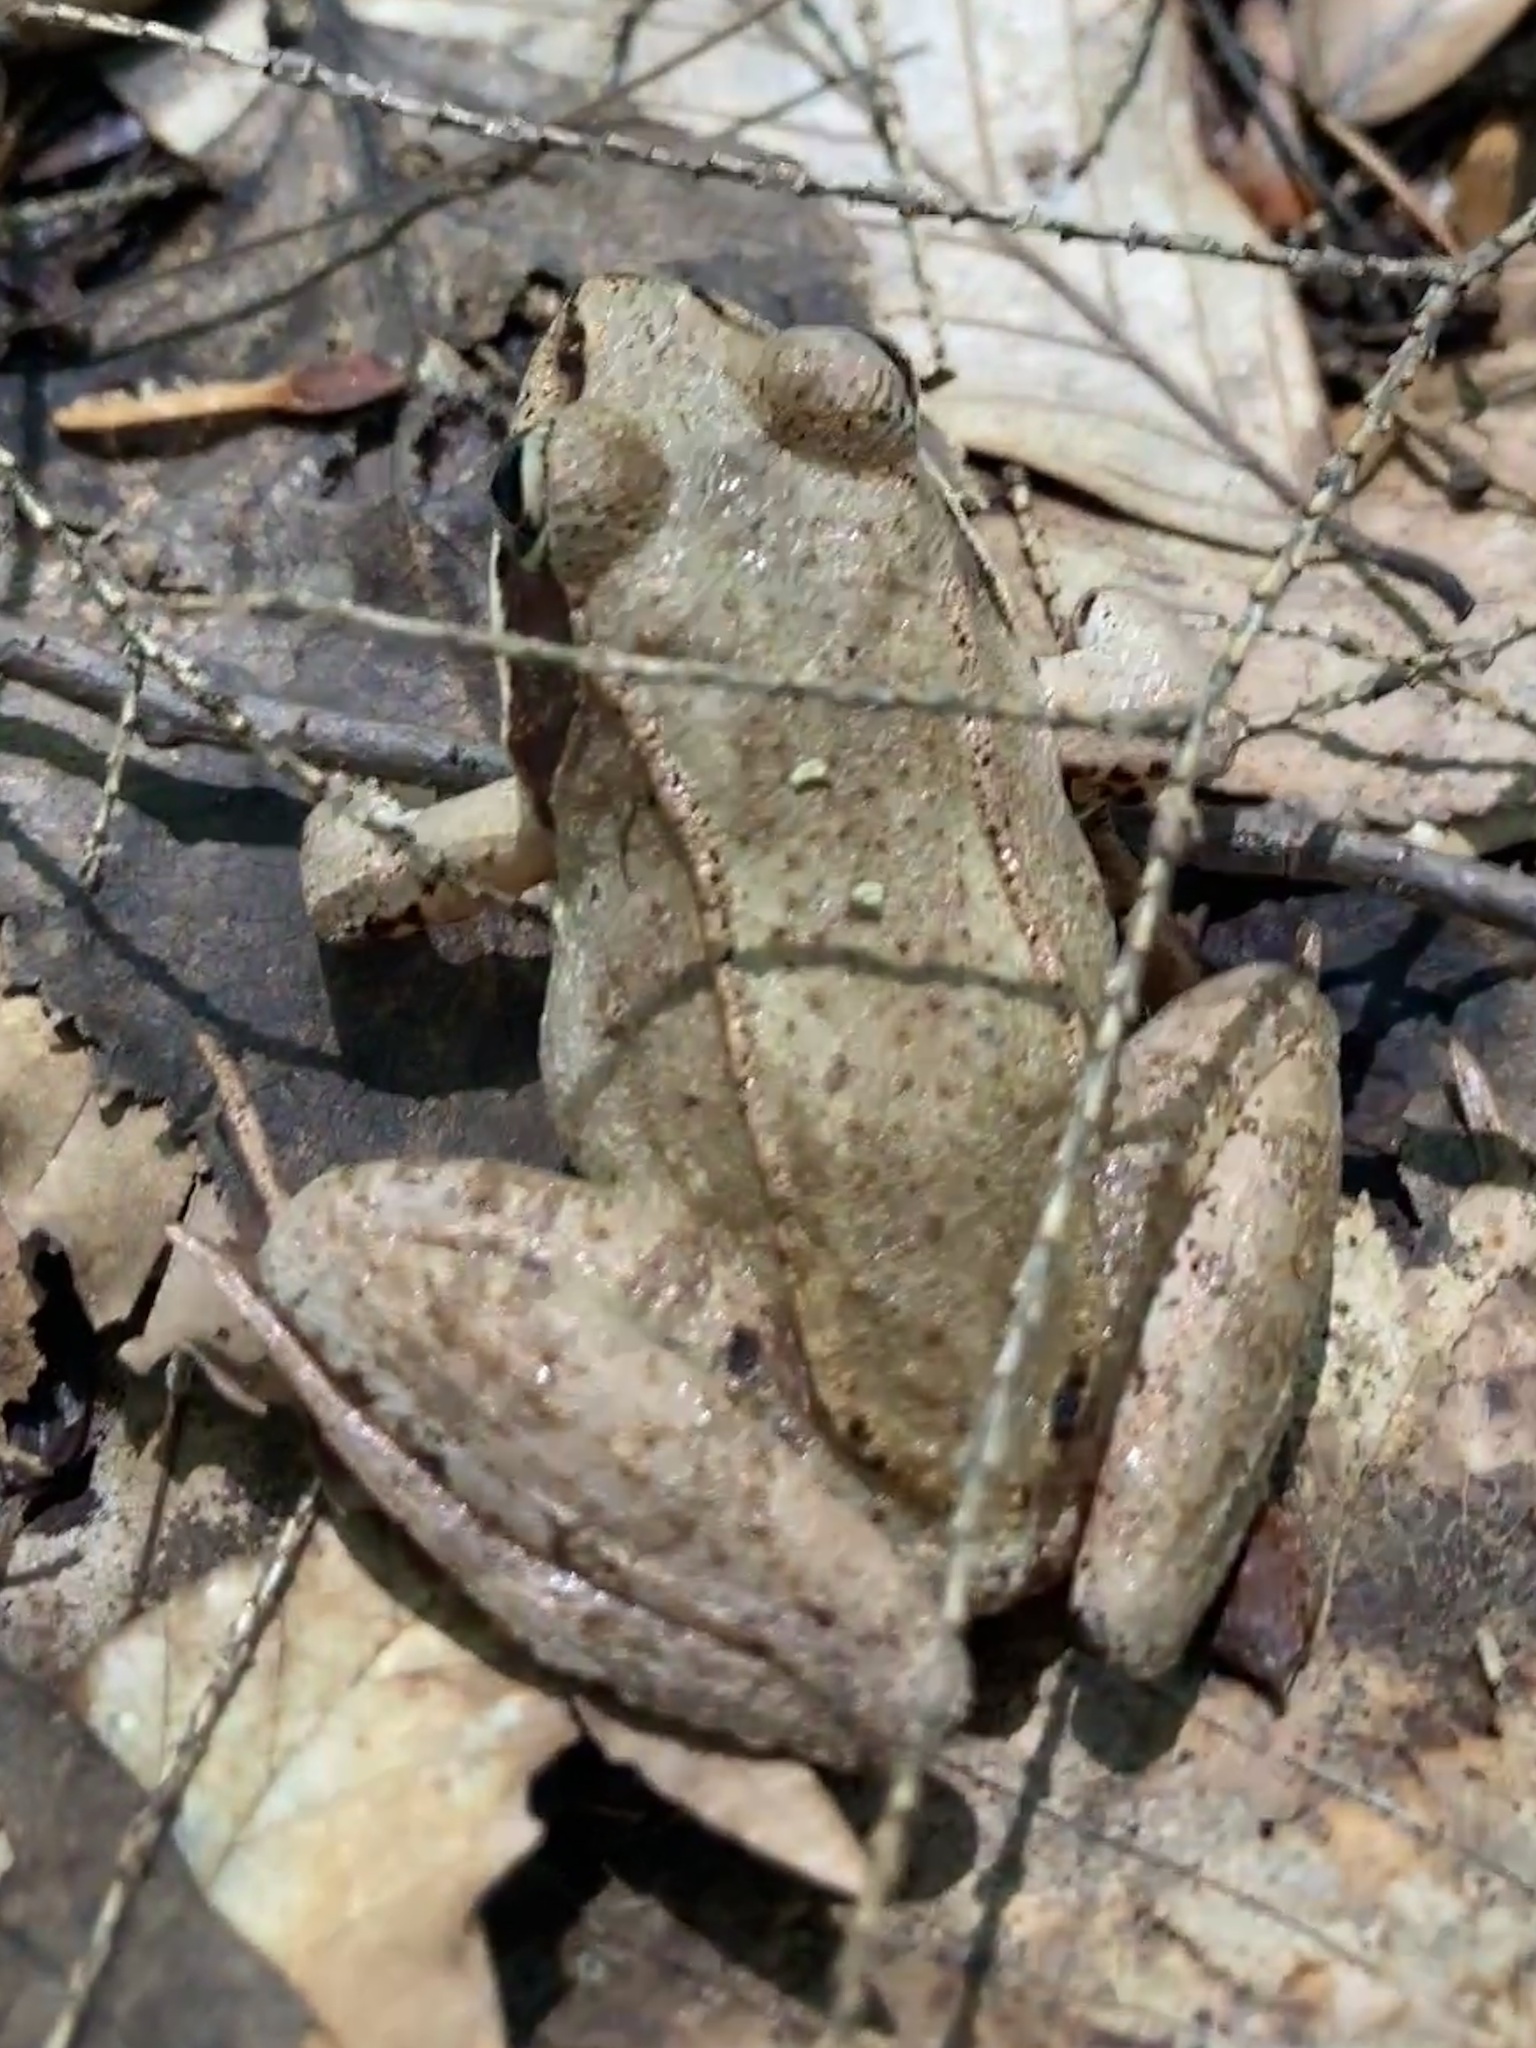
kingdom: Animalia
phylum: Chordata
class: Amphibia
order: Anura
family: Ranidae
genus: Lithobates
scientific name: Lithobates sylvaticus
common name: Wood frog
